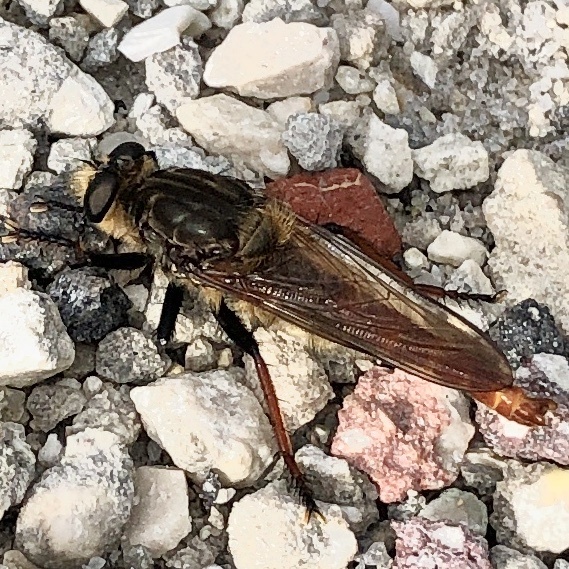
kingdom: Animalia
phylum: Arthropoda
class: Insecta
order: Diptera
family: Asilidae
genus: Proctacanthus
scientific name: Proctacanthus fulviventris
